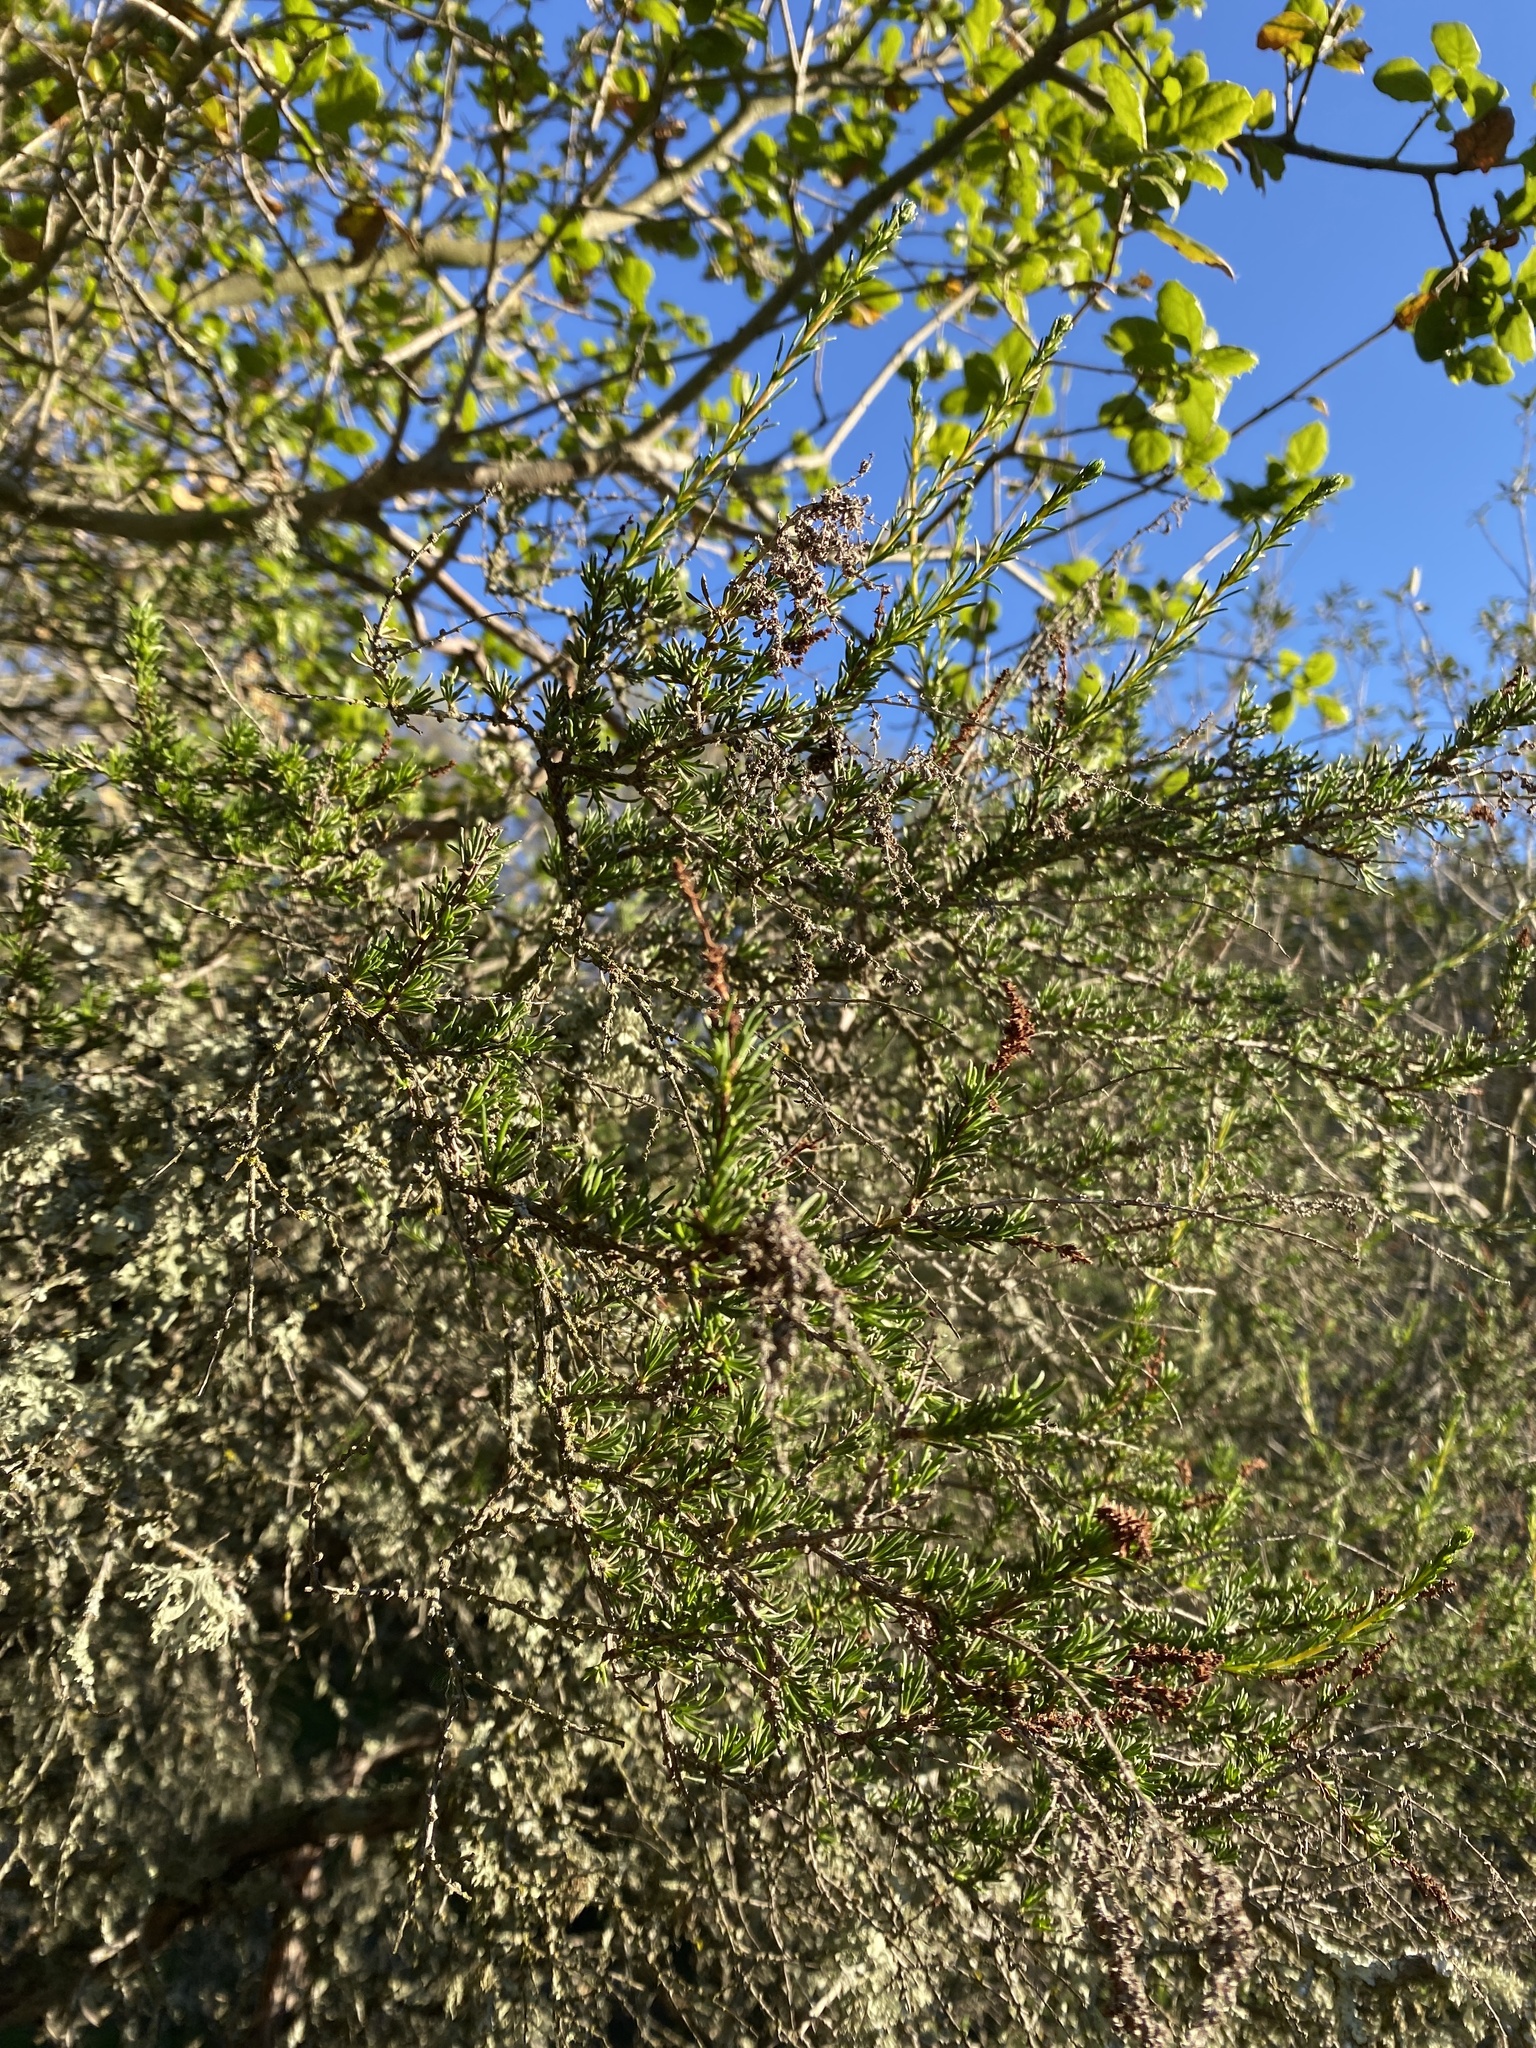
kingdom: Plantae
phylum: Tracheophyta
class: Magnoliopsida
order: Rosales
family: Rosaceae
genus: Adenostoma
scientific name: Adenostoma fasciculatum
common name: Chamise
